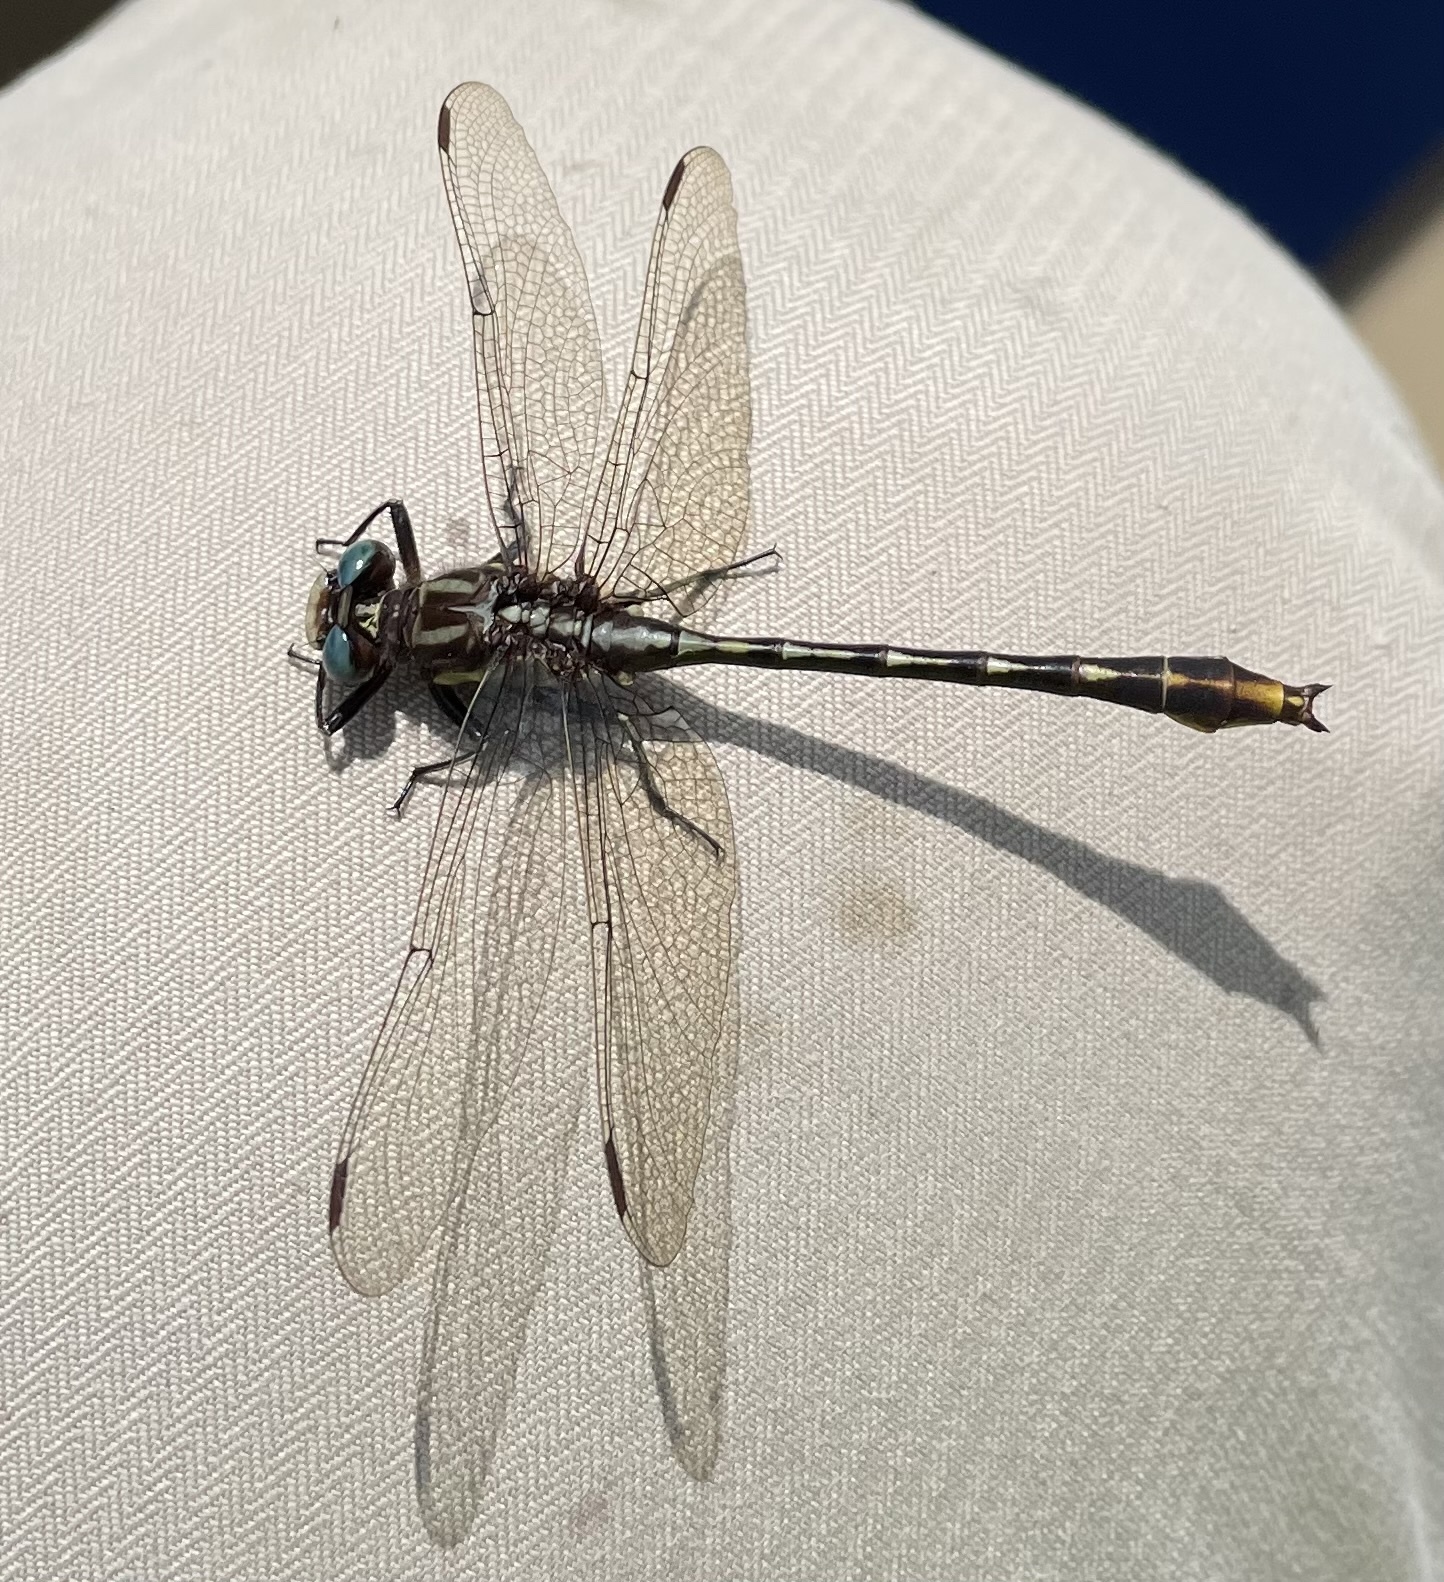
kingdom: Animalia
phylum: Arthropoda
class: Insecta
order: Odonata
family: Gomphidae
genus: Phanogomphus
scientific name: Phanogomphus exilis
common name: Lancet clubtail
